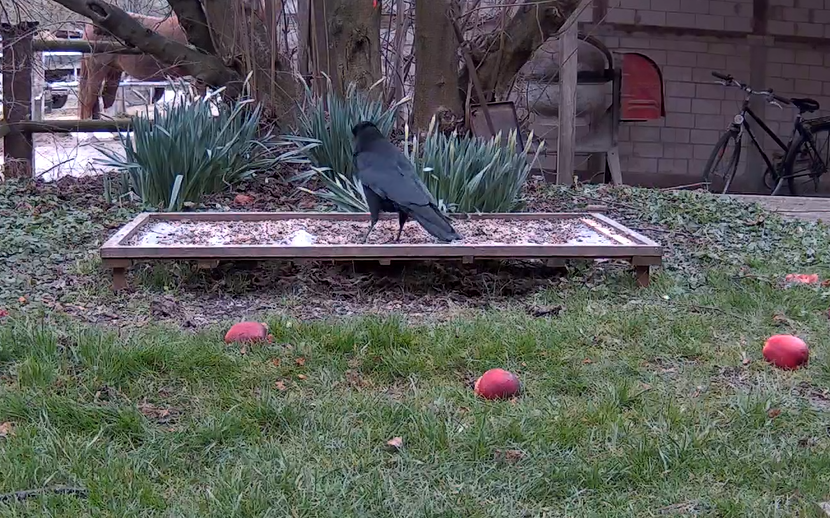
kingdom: Animalia
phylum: Chordata
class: Aves
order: Passeriformes
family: Corvidae
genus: Corvus
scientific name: Corvus corone
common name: Carrion crow
